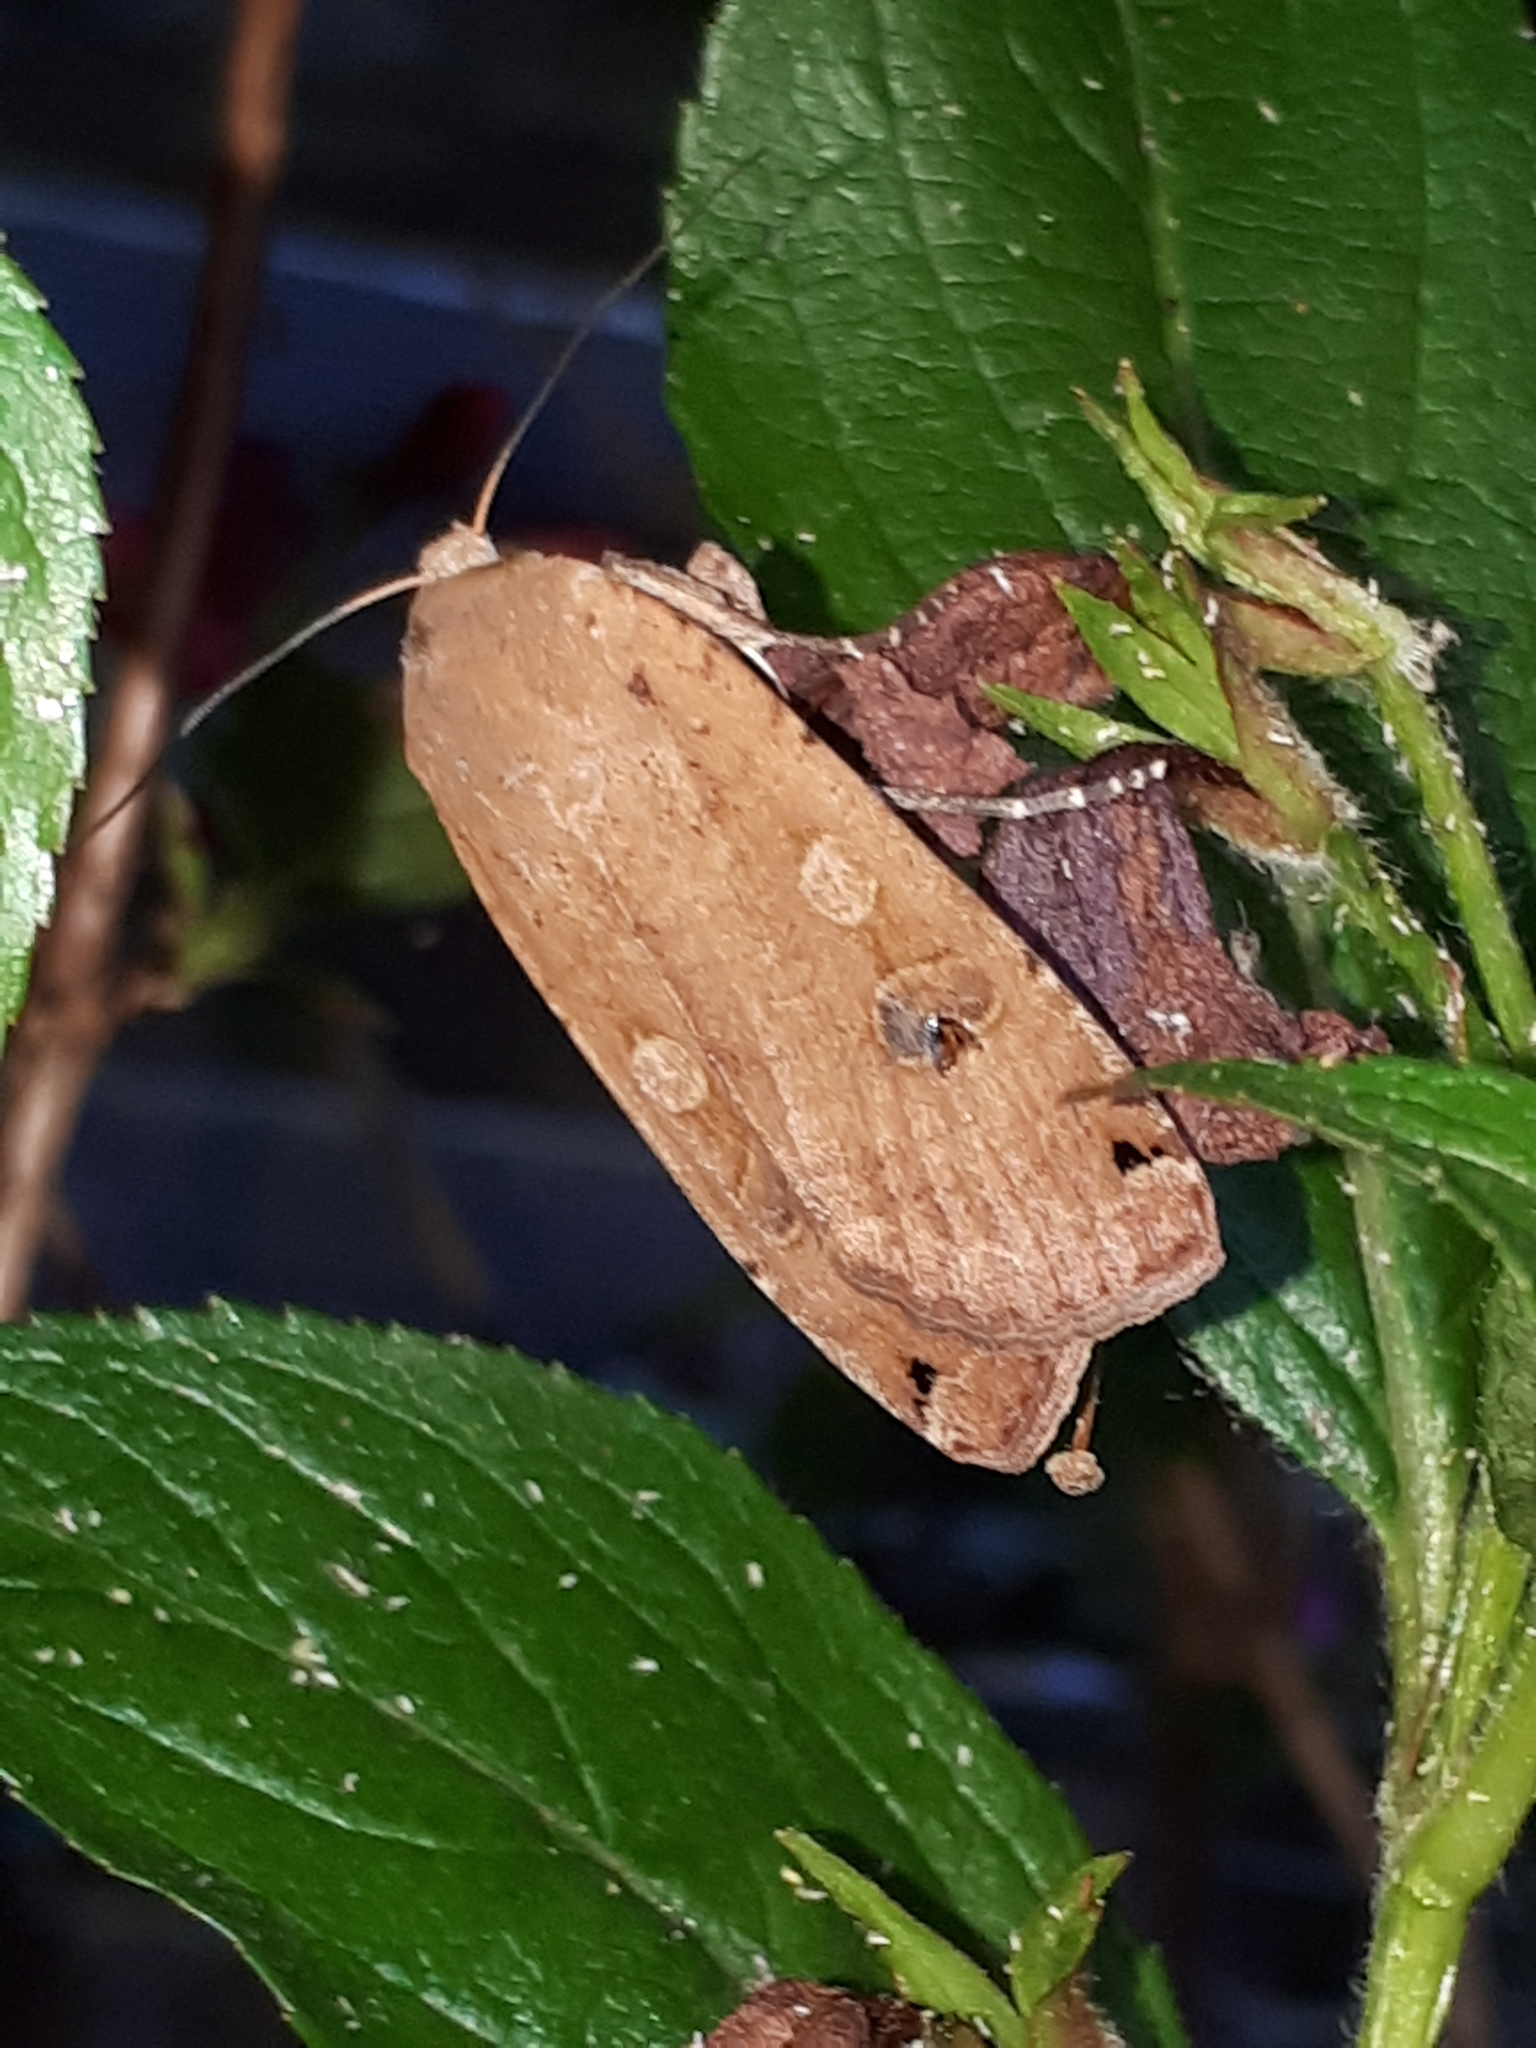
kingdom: Animalia
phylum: Arthropoda
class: Insecta
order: Lepidoptera
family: Noctuidae
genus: Noctua
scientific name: Noctua pronuba
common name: Large yellow underwing
